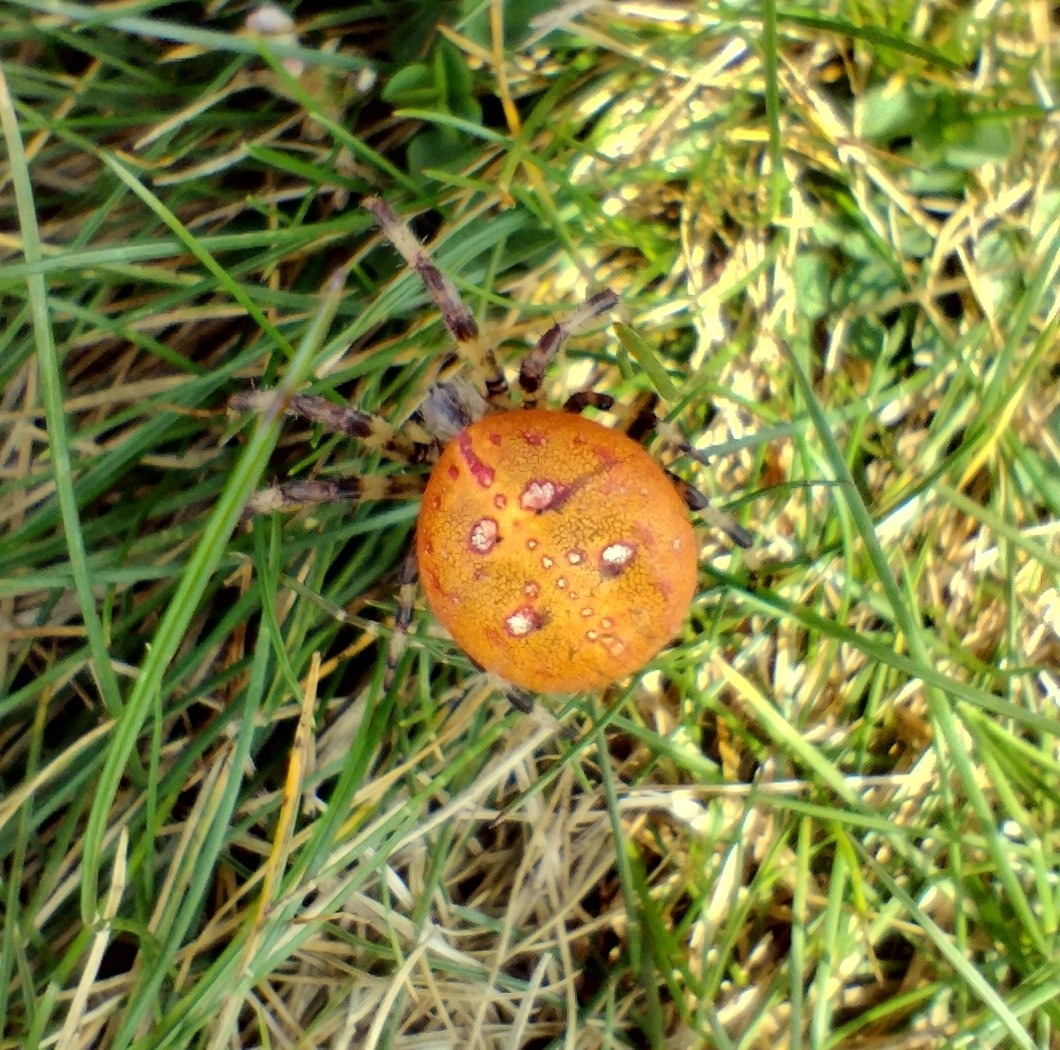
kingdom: Animalia
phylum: Arthropoda
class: Arachnida
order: Araneae
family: Araneidae
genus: Araneus
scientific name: Araneus quadratus
